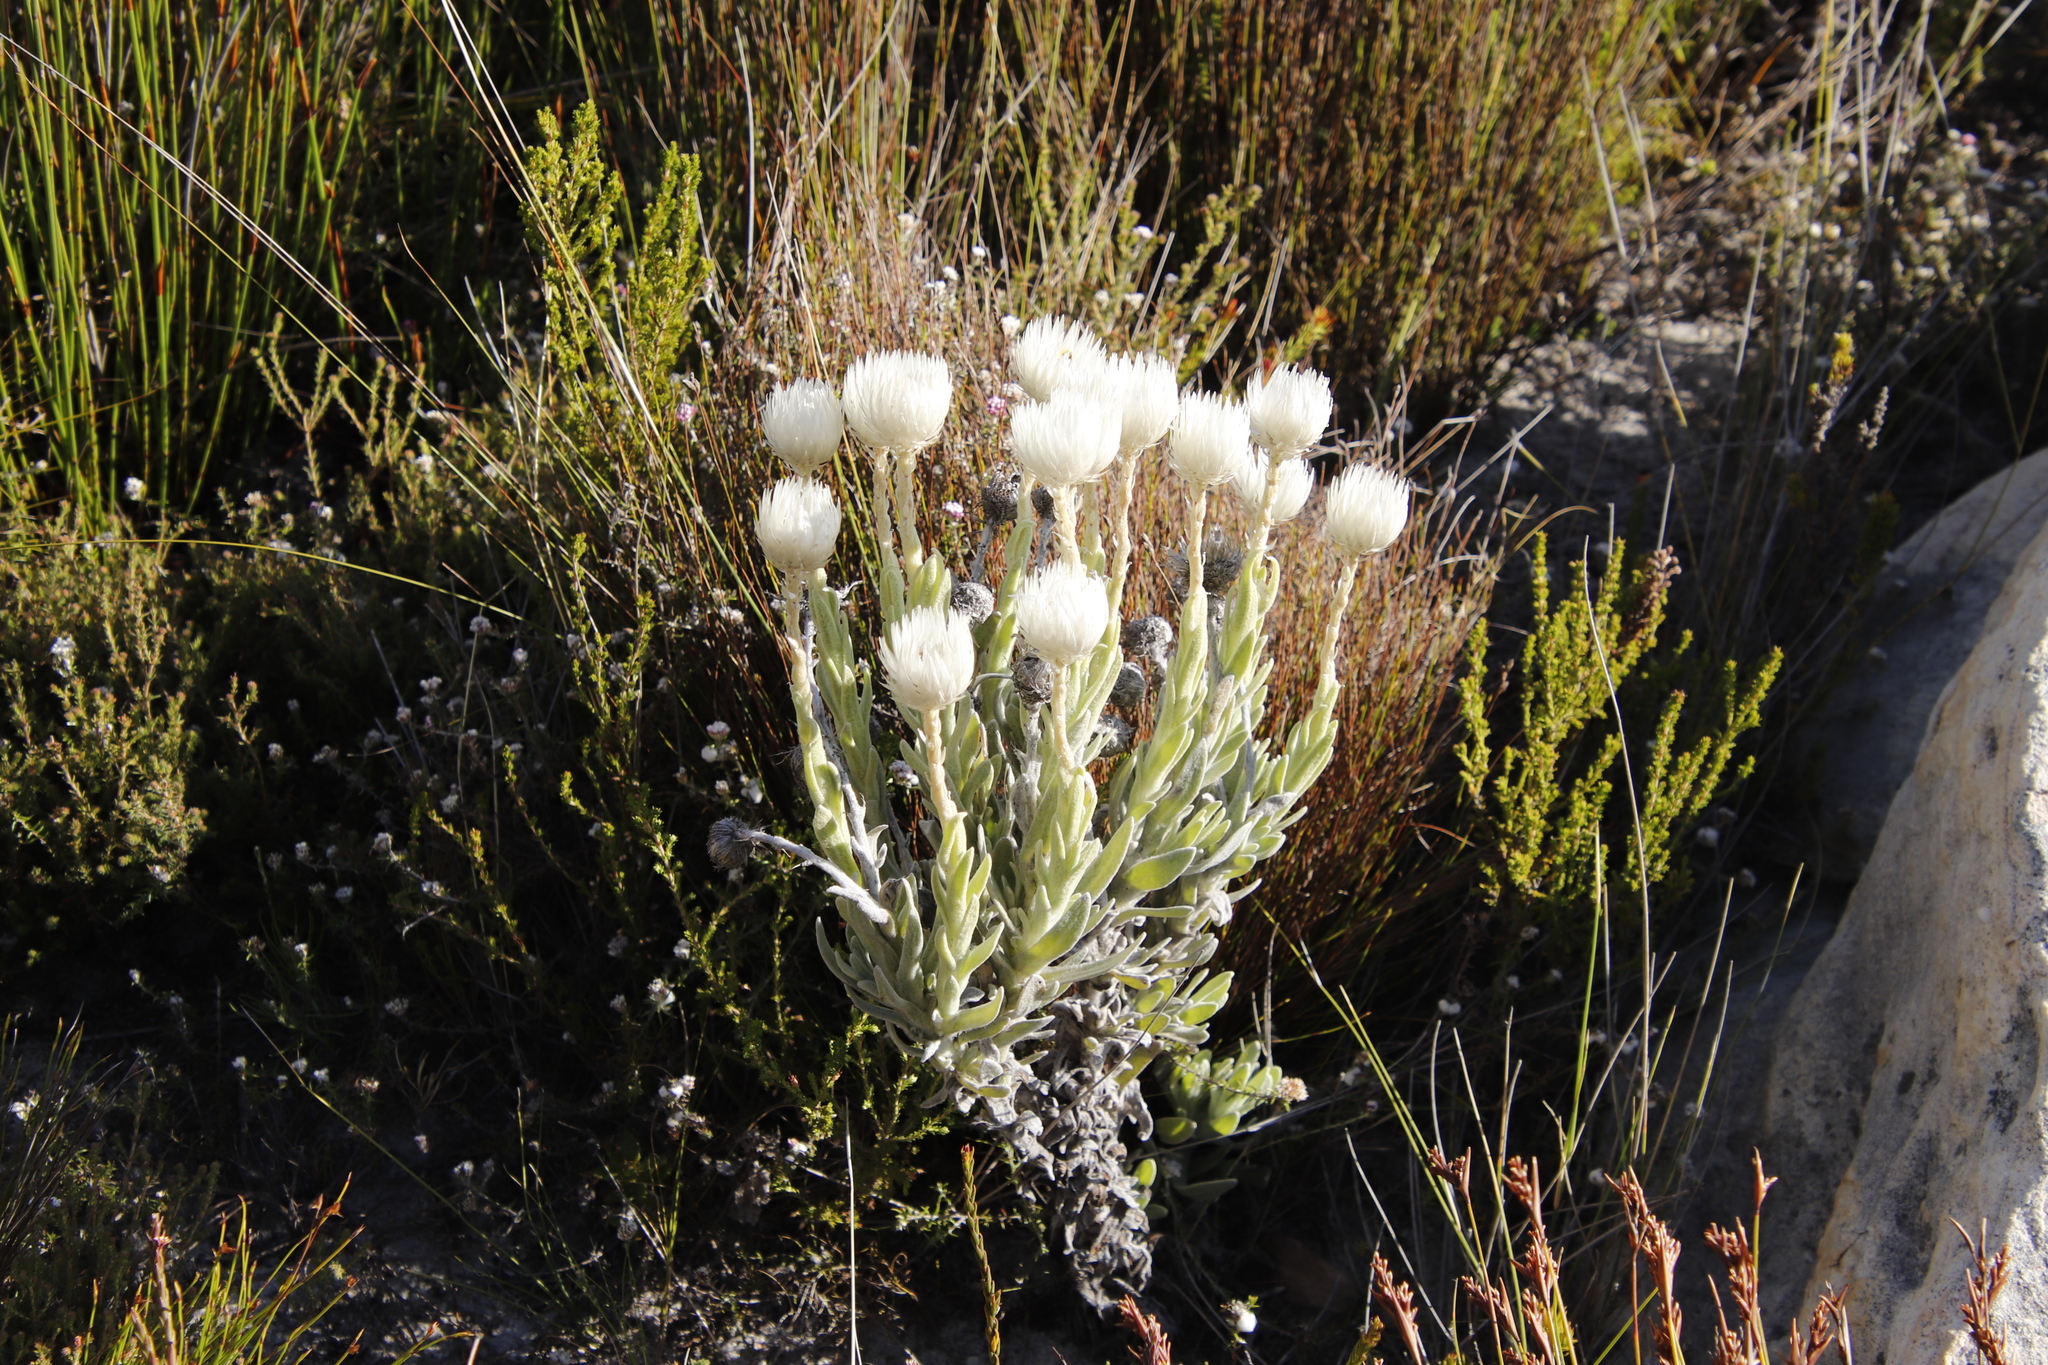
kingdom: Plantae
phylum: Tracheophyta
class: Magnoliopsida
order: Asterales
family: Asteraceae
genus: Syncarpha
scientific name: Syncarpha vestita
